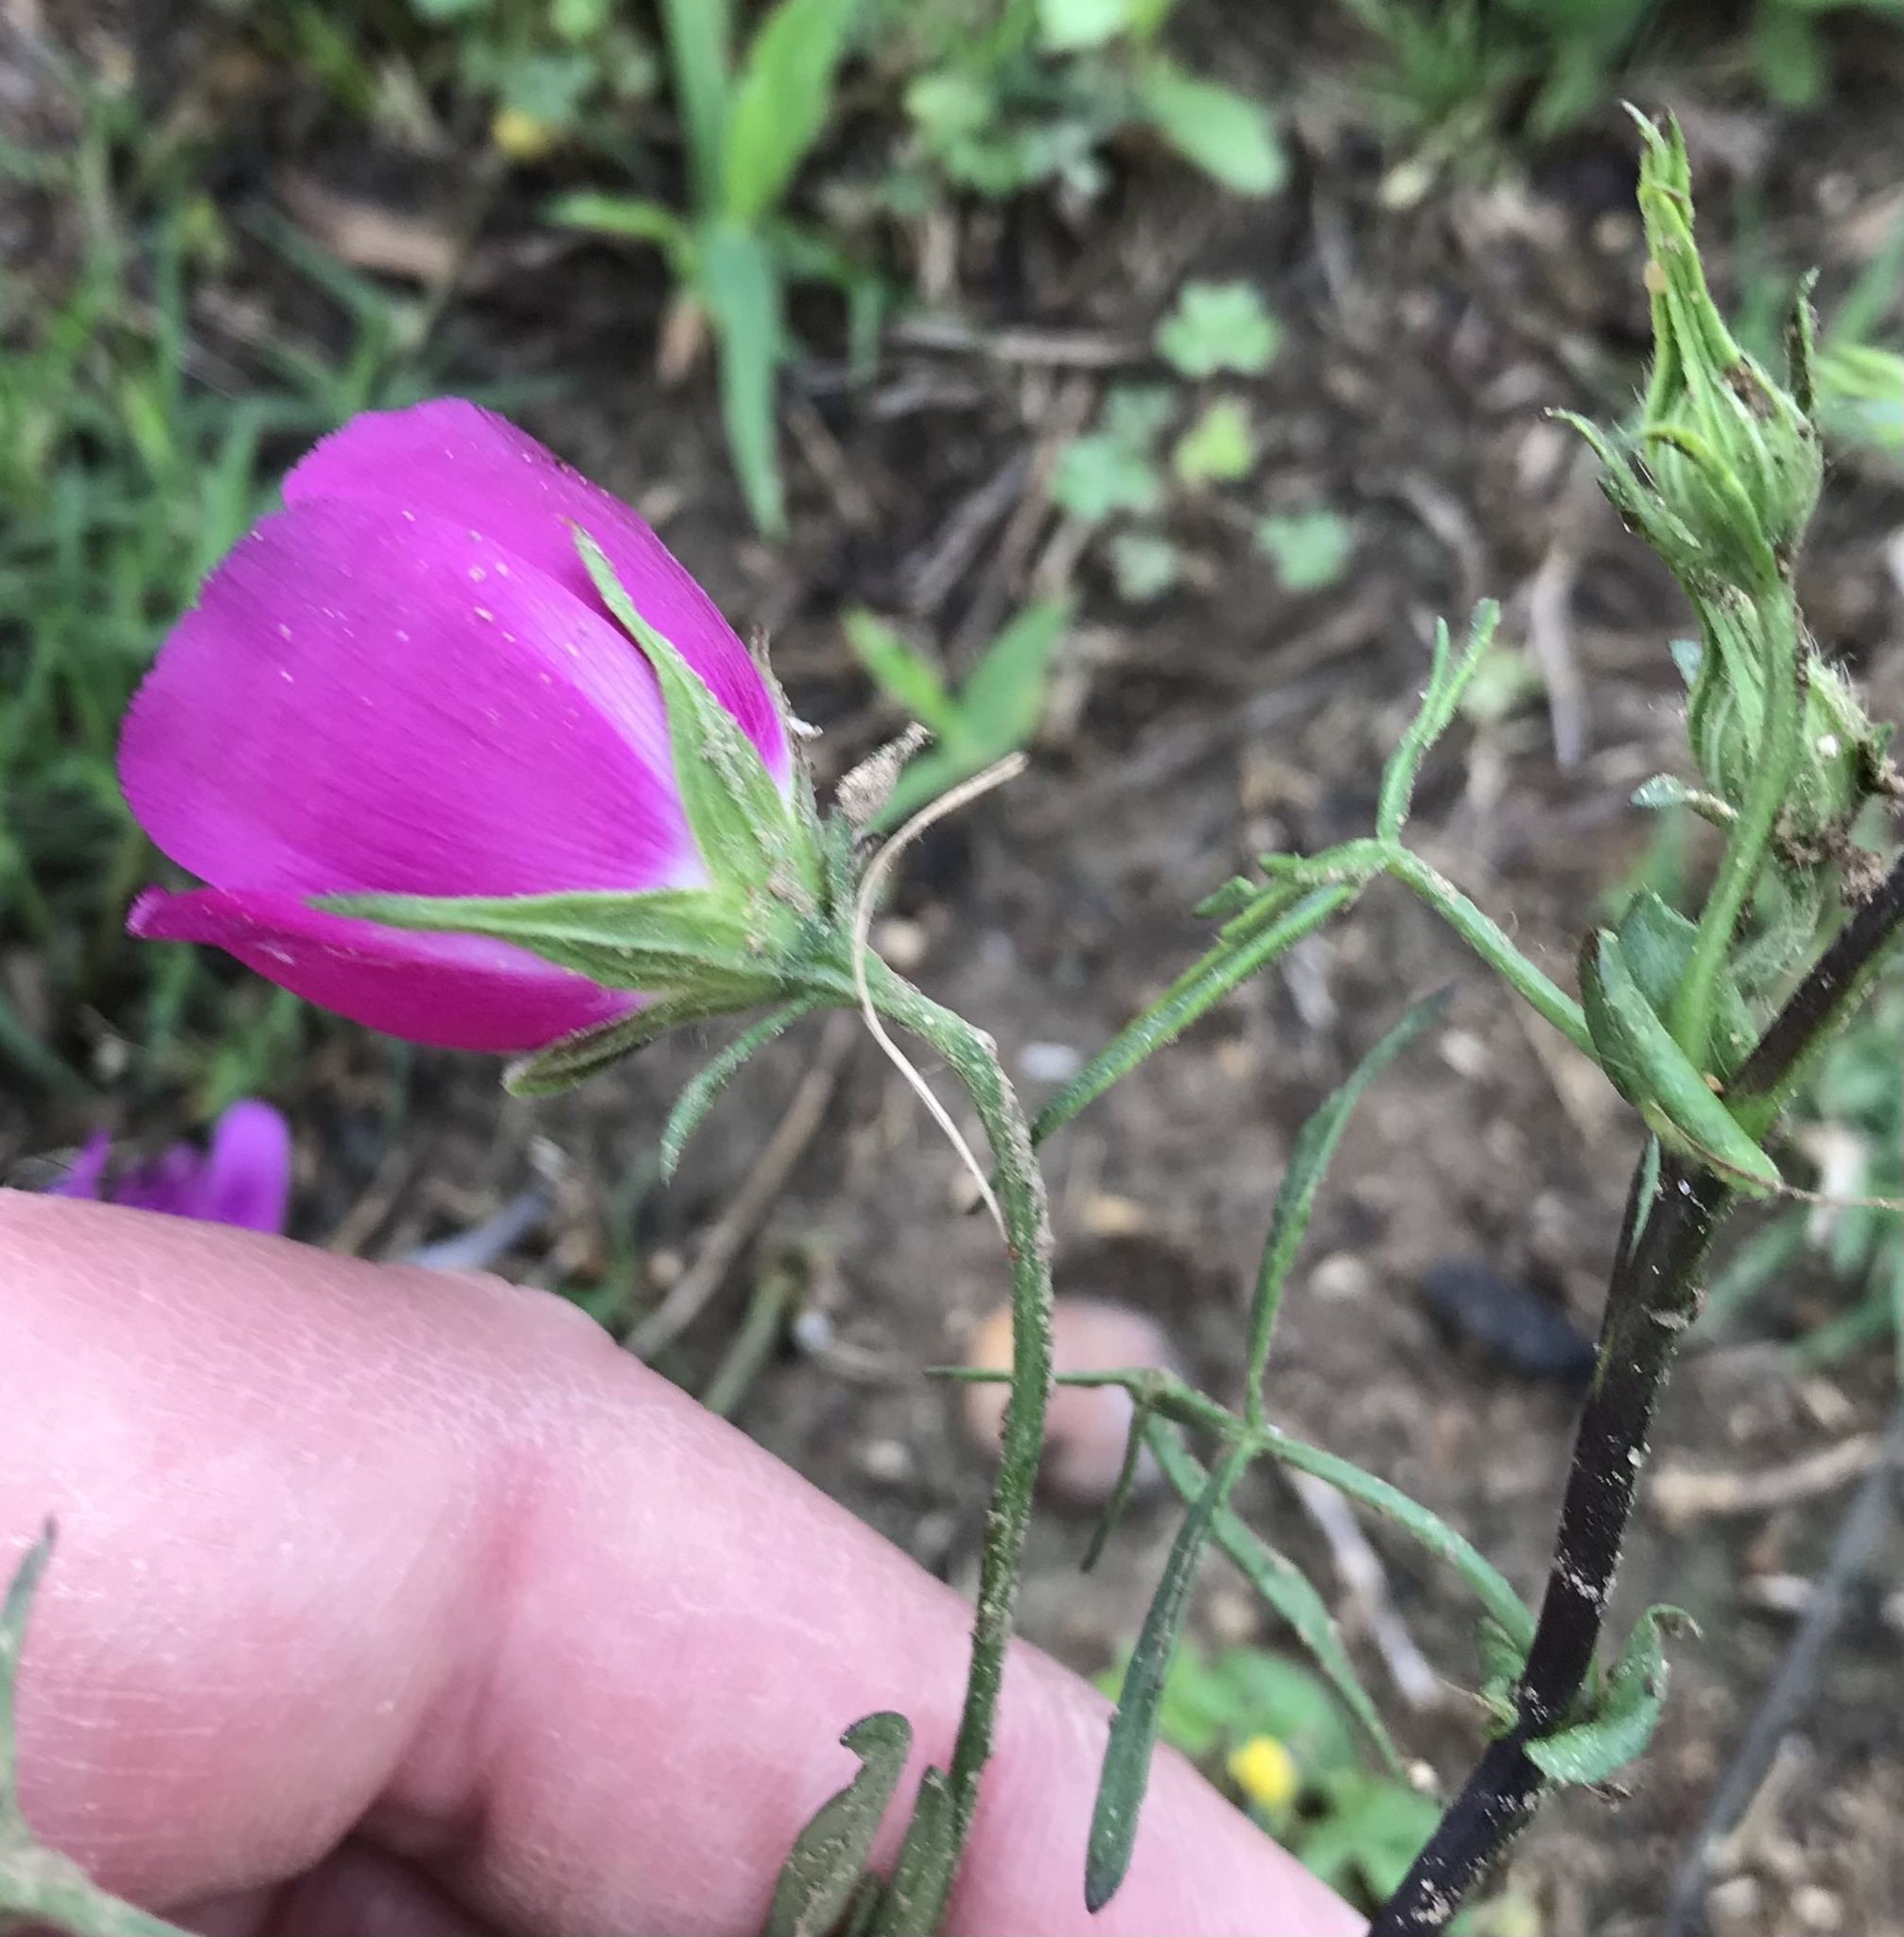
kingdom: Plantae
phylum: Tracheophyta
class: Magnoliopsida
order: Malvales
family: Malvaceae
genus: Callirhoe
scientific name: Callirhoe involucrata
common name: Purple poppy-mallow
